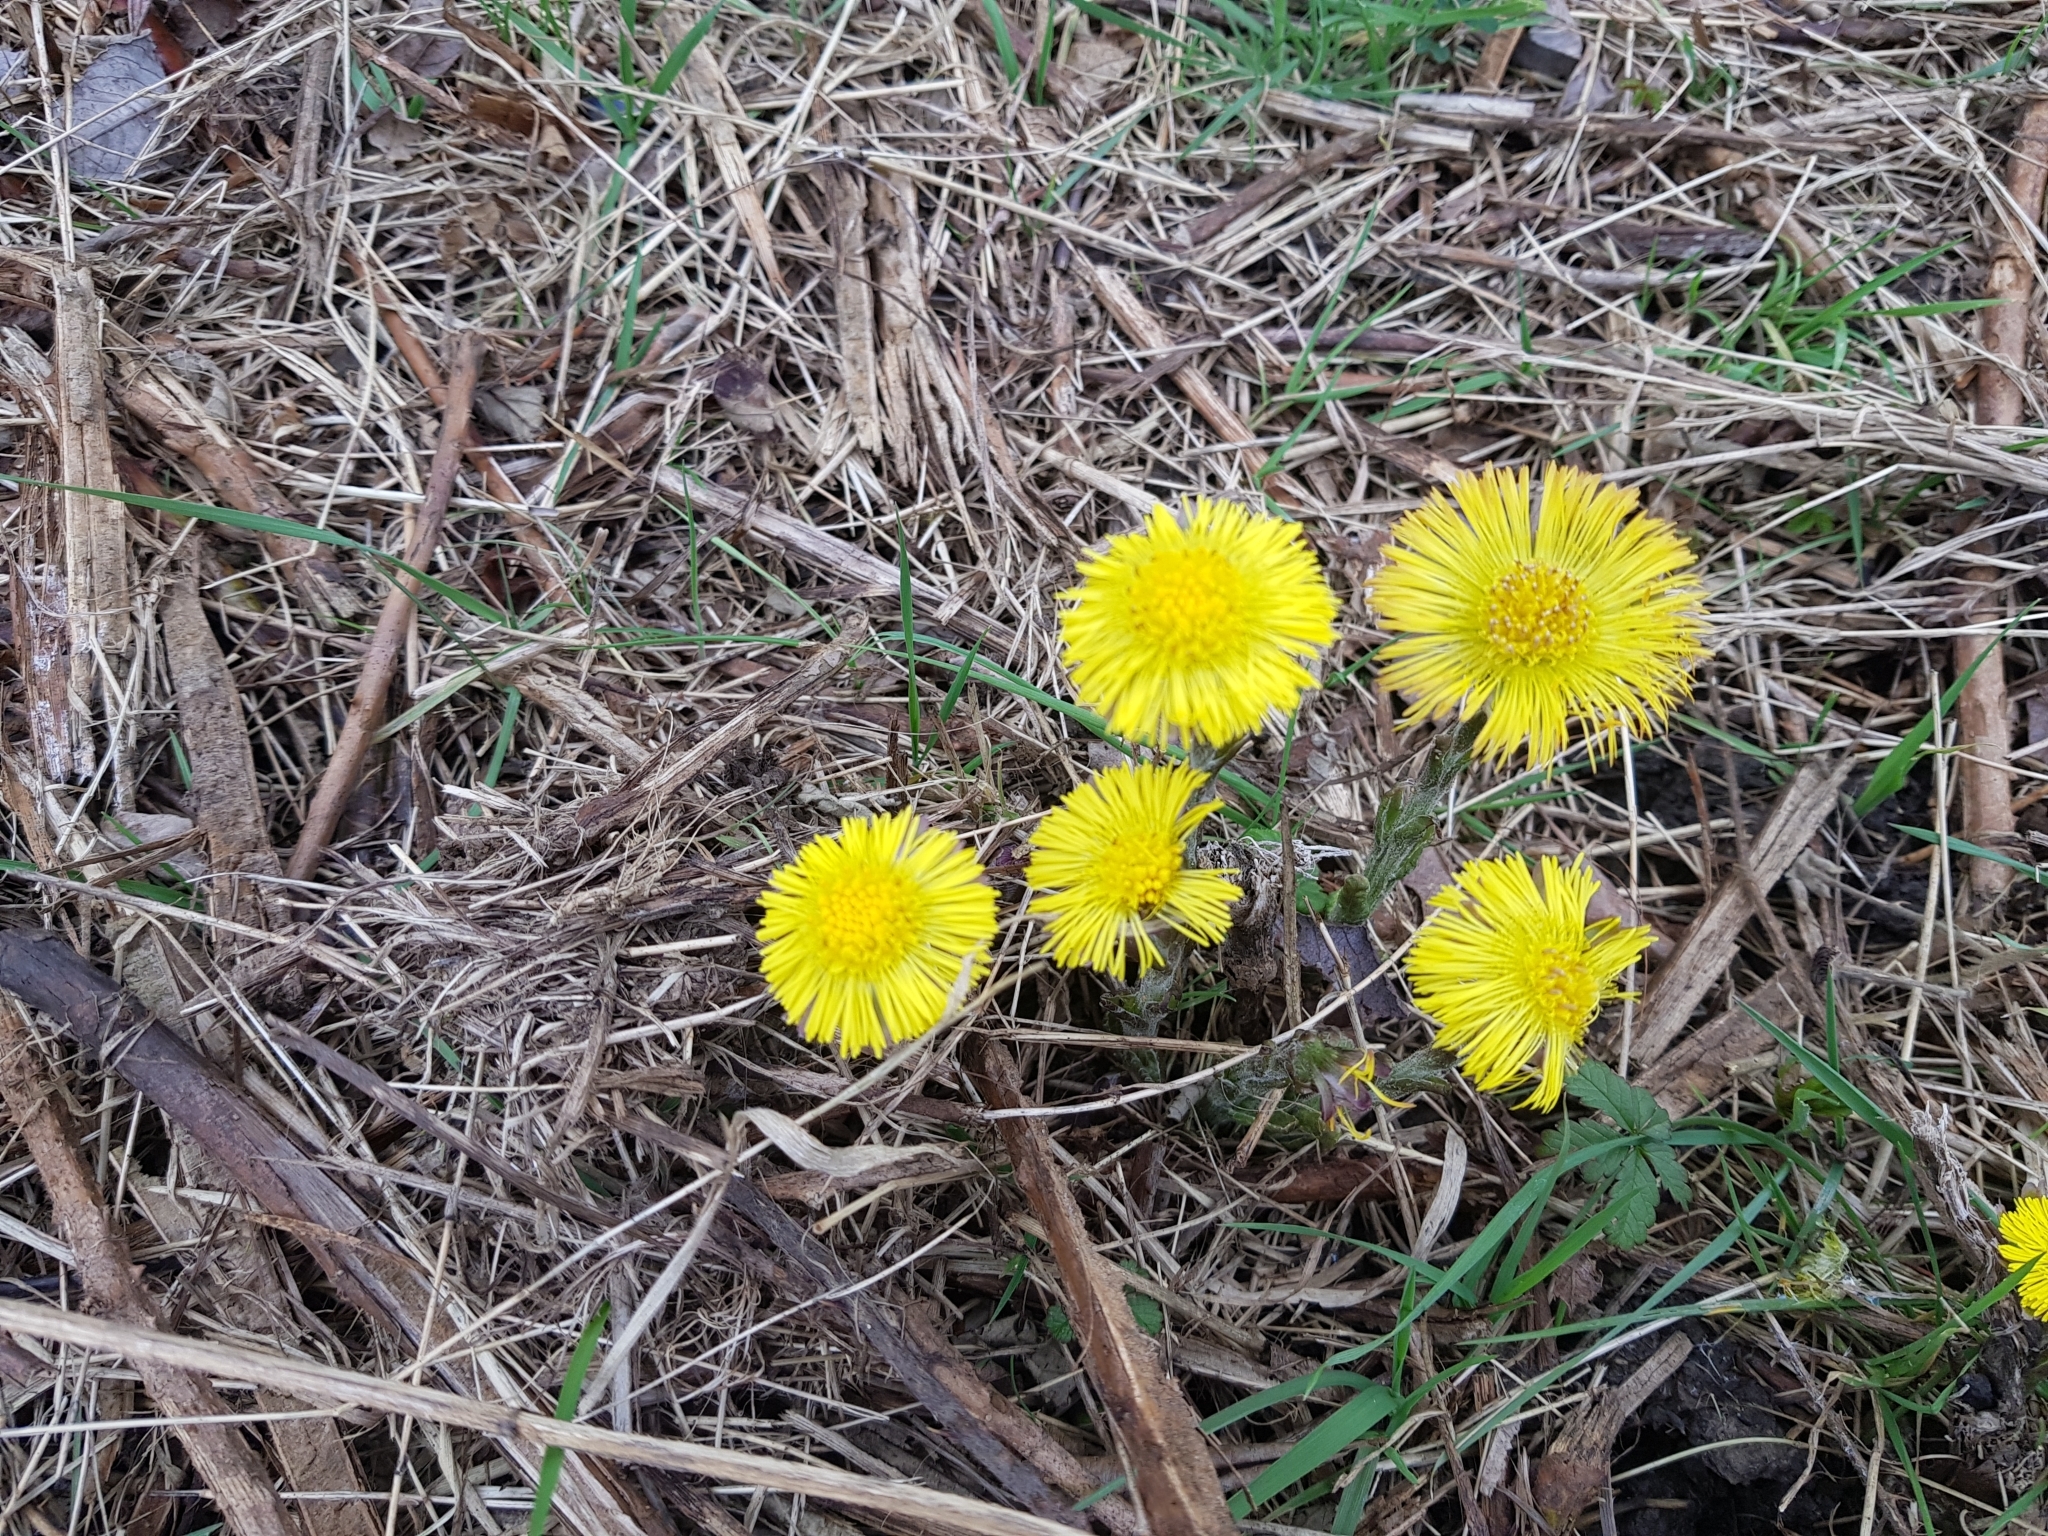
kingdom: Plantae
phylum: Tracheophyta
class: Magnoliopsida
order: Asterales
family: Asteraceae
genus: Tussilago
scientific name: Tussilago farfara
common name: Coltsfoot
